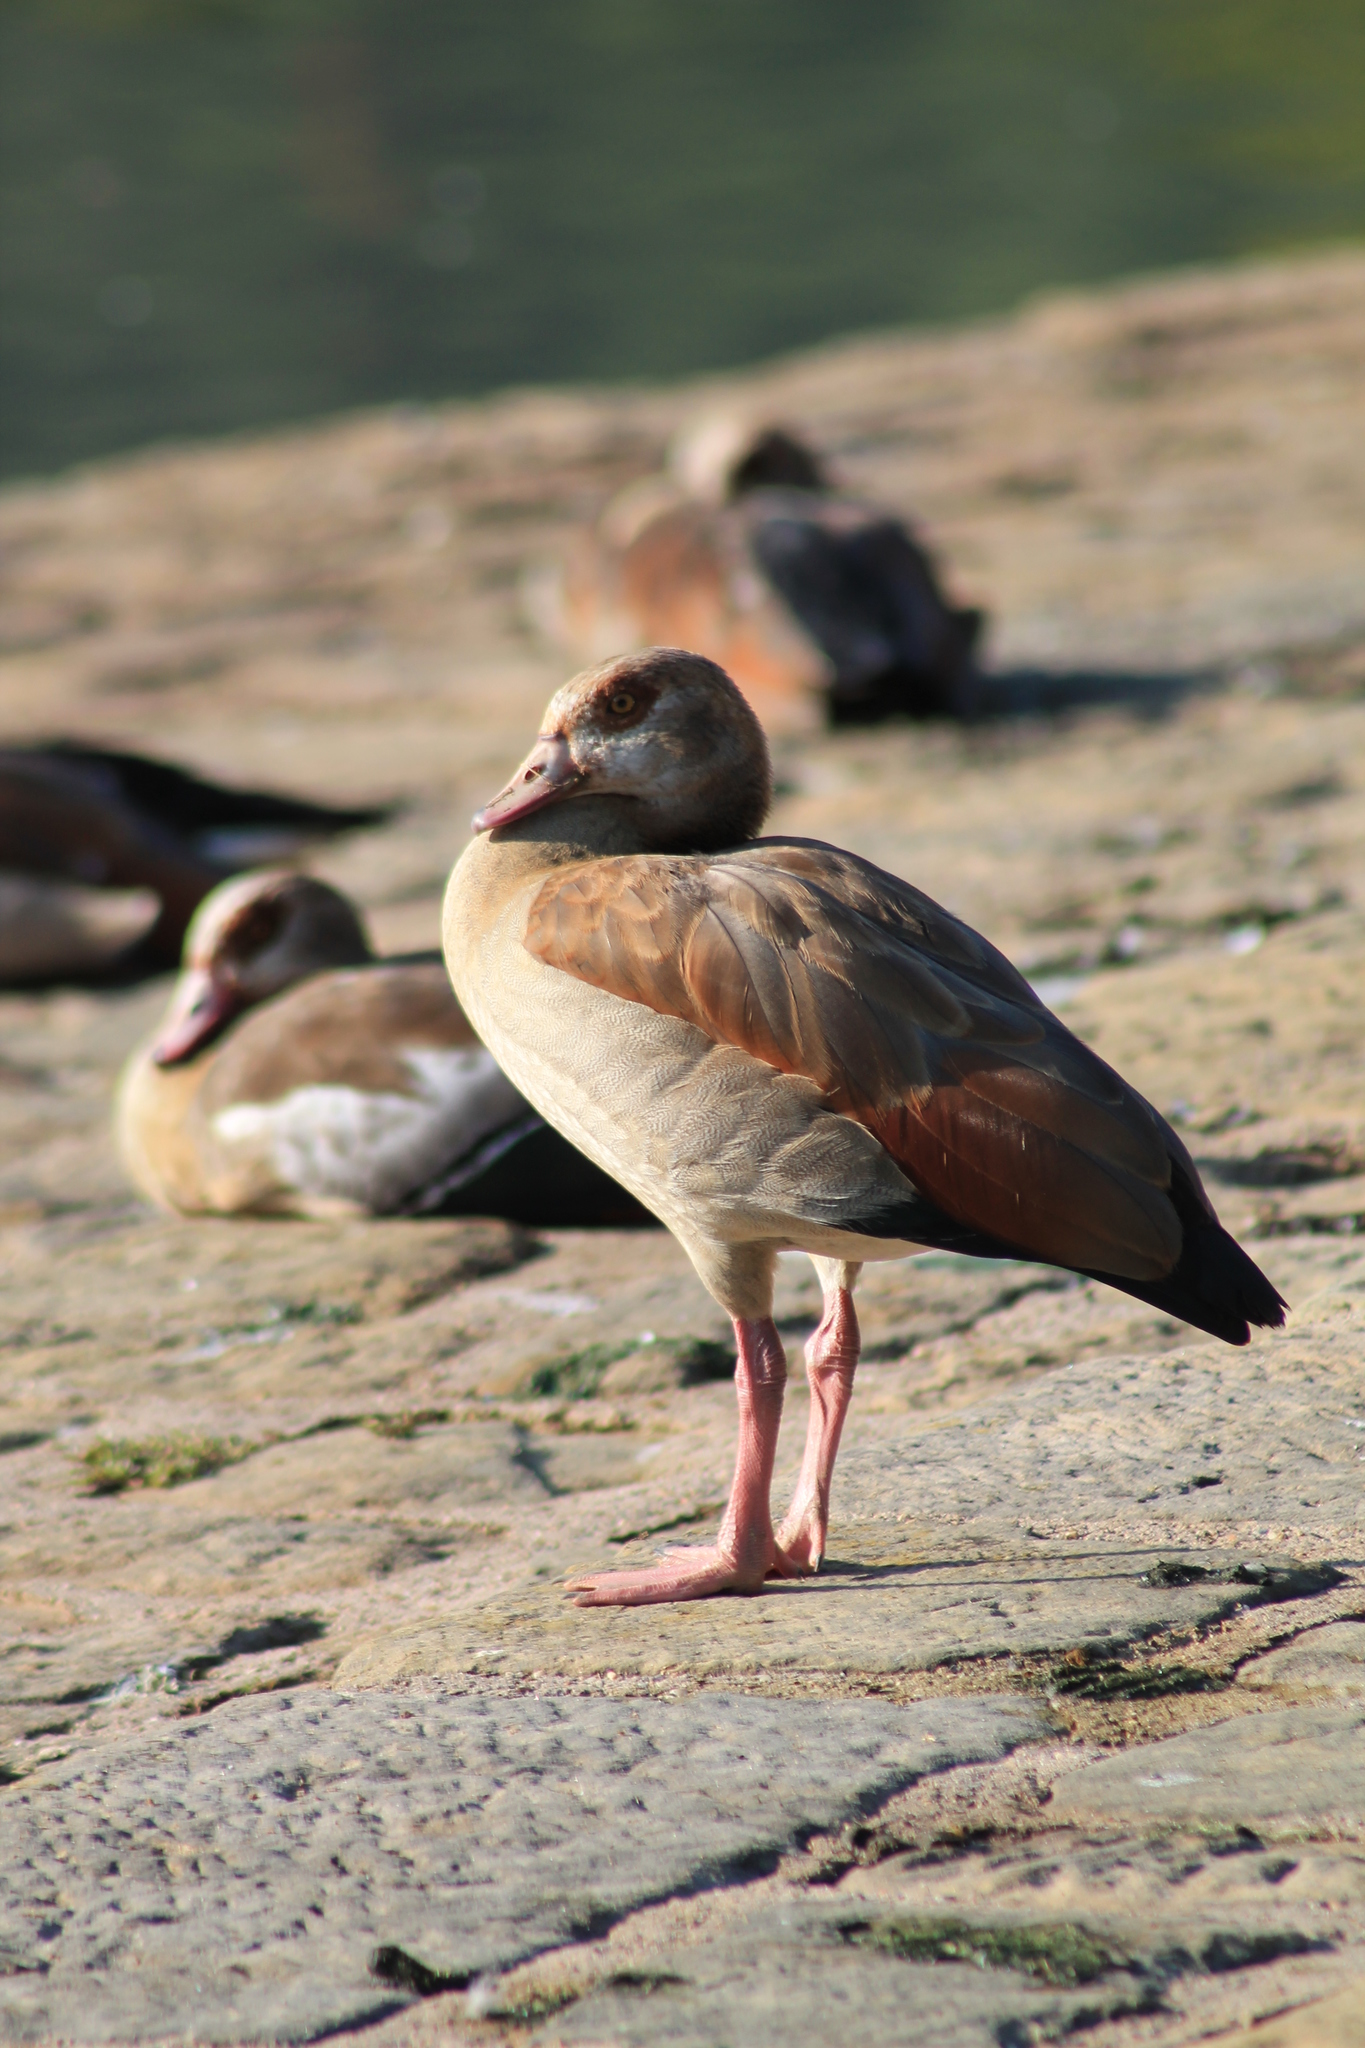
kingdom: Animalia
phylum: Chordata
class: Aves
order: Anseriformes
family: Anatidae
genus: Alopochen
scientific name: Alopochen aegyptiaca
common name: Egyptian goose
